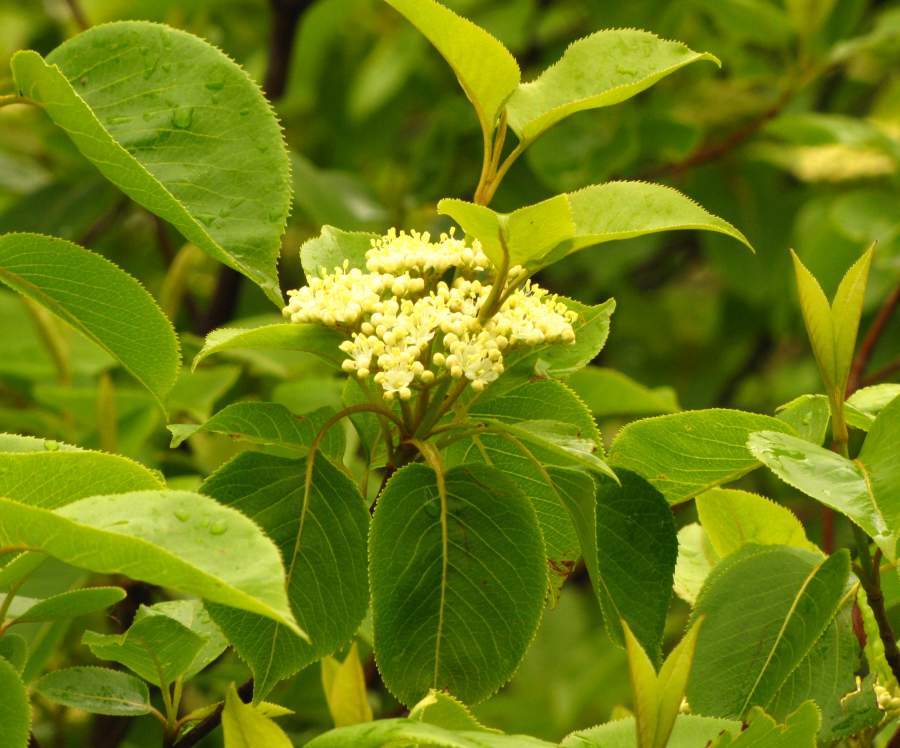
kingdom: Plantae
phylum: Tracheophyta
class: Magnoliopsida
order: Dipsacales
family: Viburnaceae
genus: Viburnum
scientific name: Viburnum lentago
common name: Black haw
